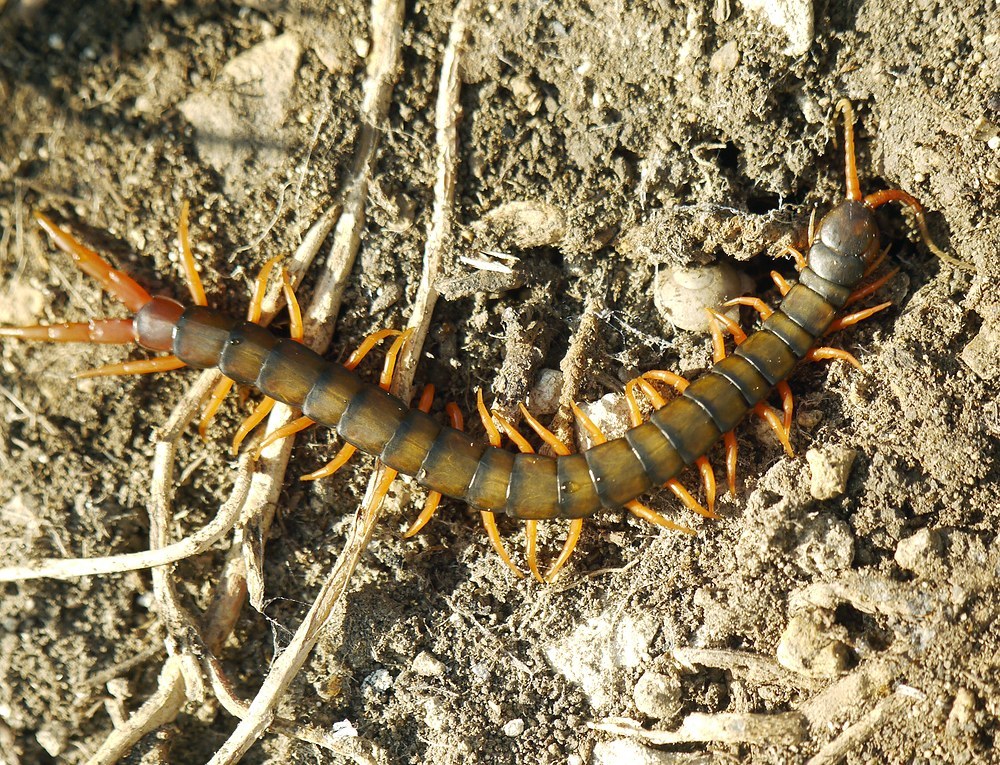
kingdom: Animalia
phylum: Arthropoda
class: Chilopoda
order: Scolopendromorpha
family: Scolopendridae
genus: Scolopendra
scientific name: Scolopendra cingulata
